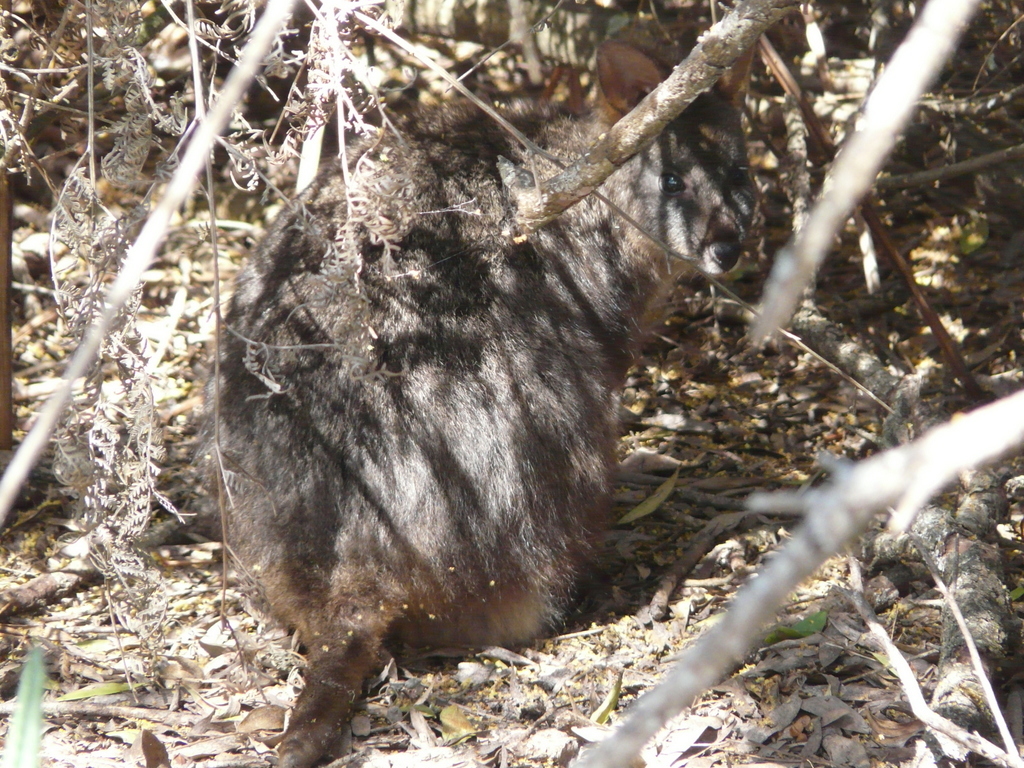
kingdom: Animalia
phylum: Chordata
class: Mammalia
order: Diprotodontia
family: Macropodidae
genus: Thylogale
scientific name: Thylogale billardierii
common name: Tasmanian pademelon
